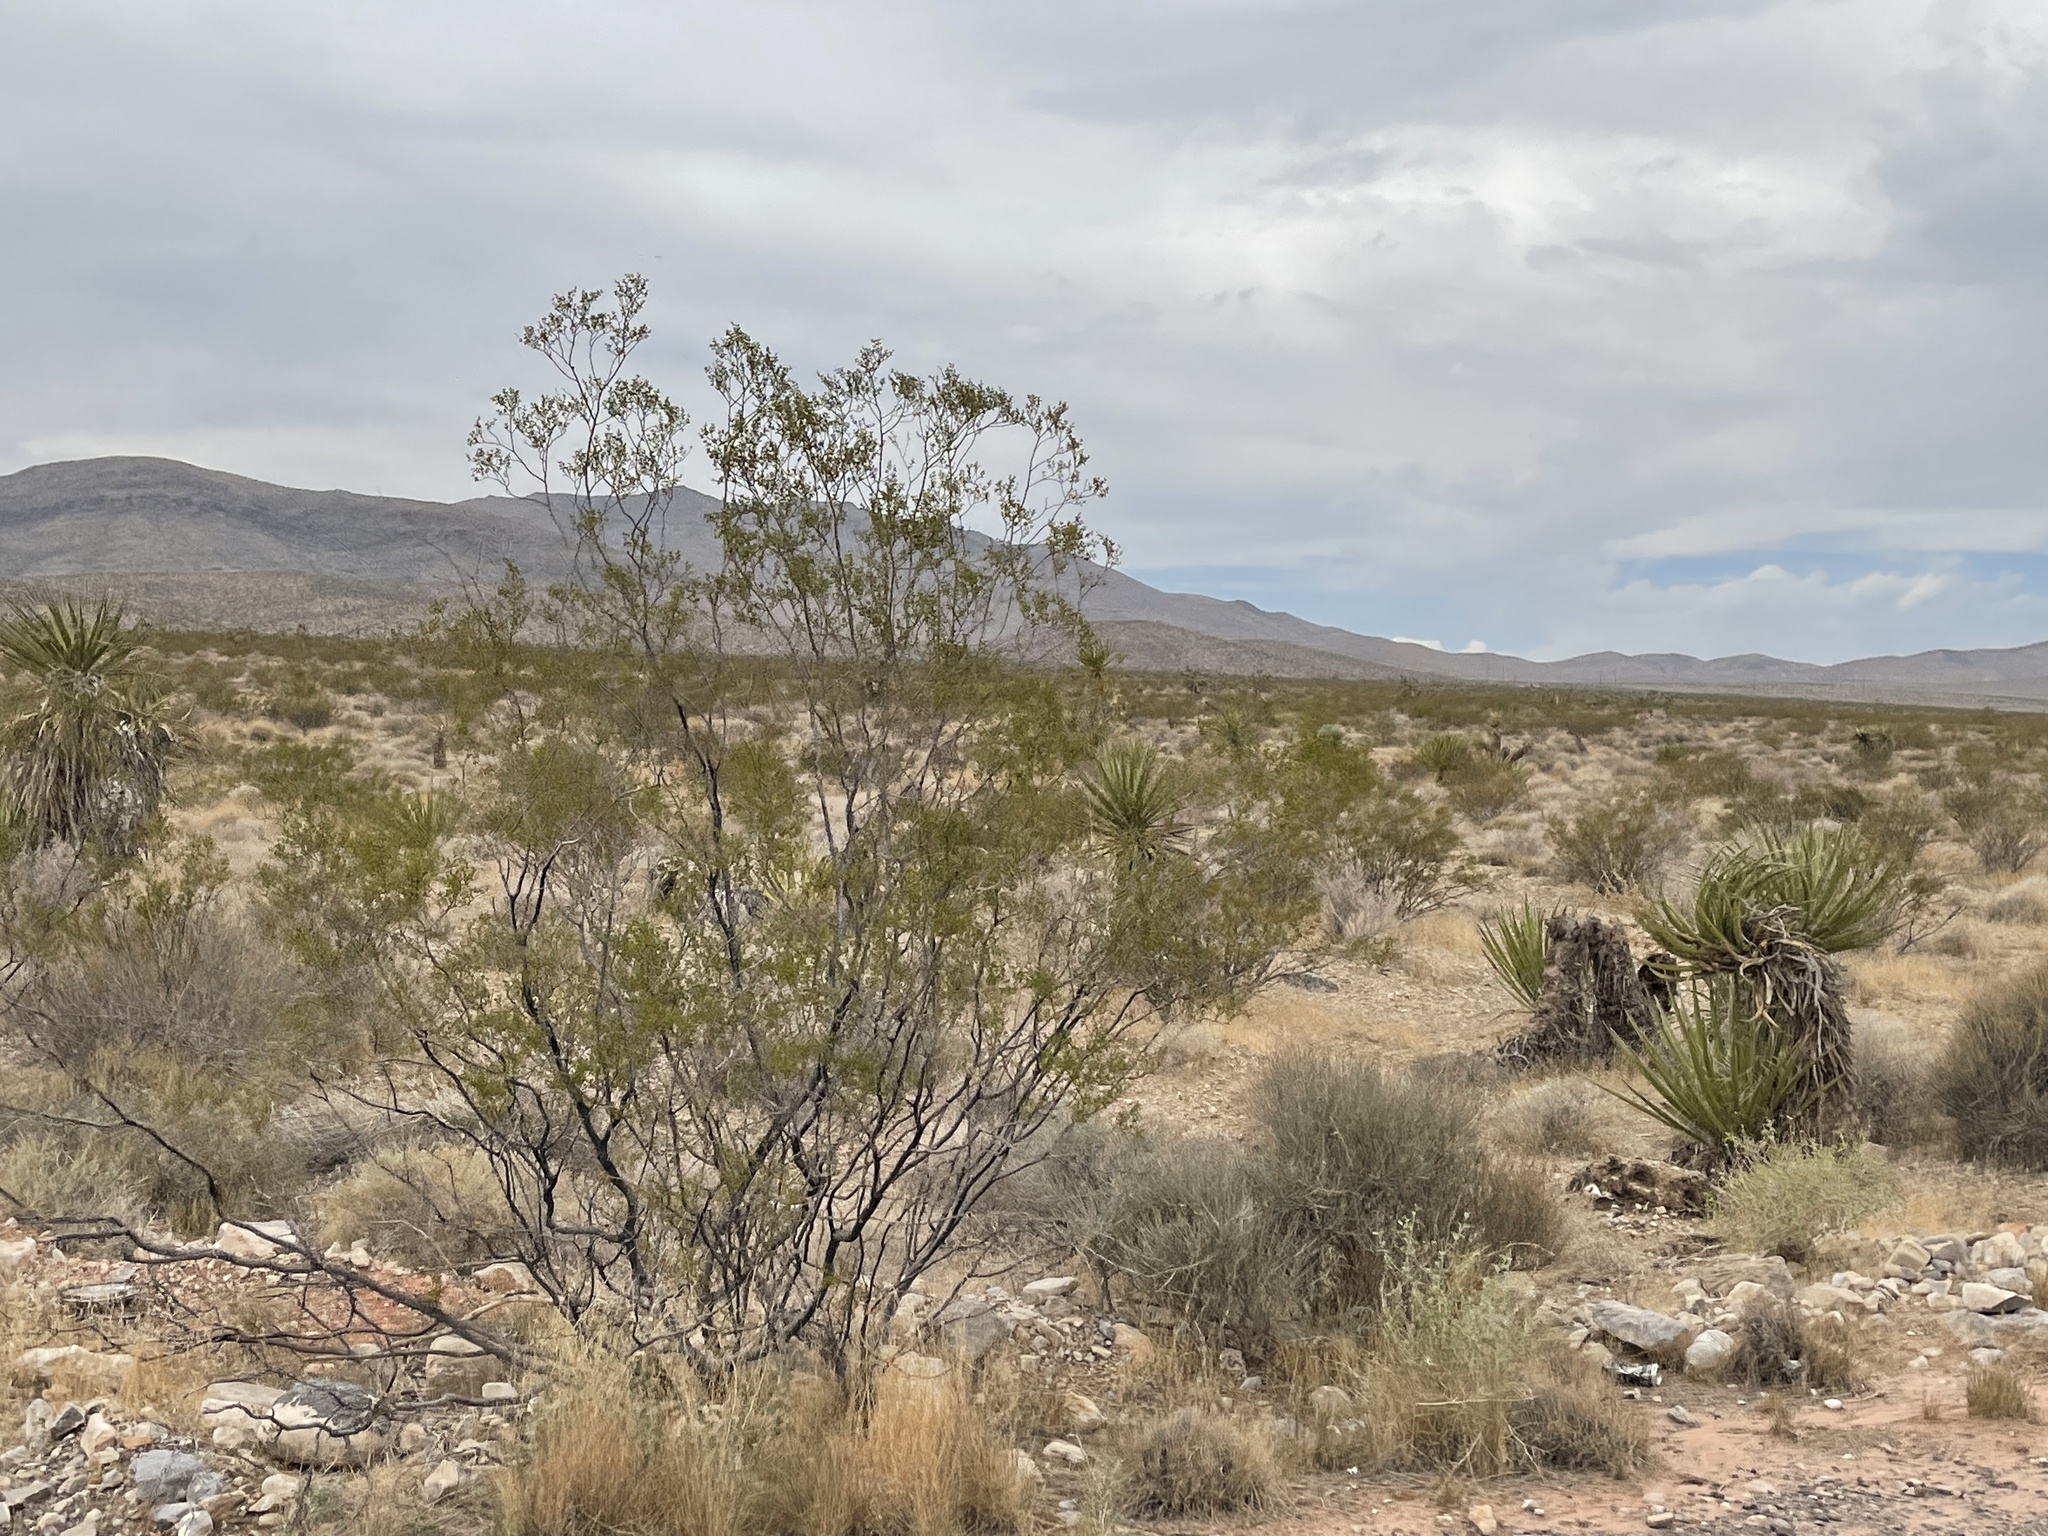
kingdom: Plantae
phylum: Tracheophyta
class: Magnoliopsida
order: Zygophyllales
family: Zygophyllaceae
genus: Larrea
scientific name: Larrea tridentata
